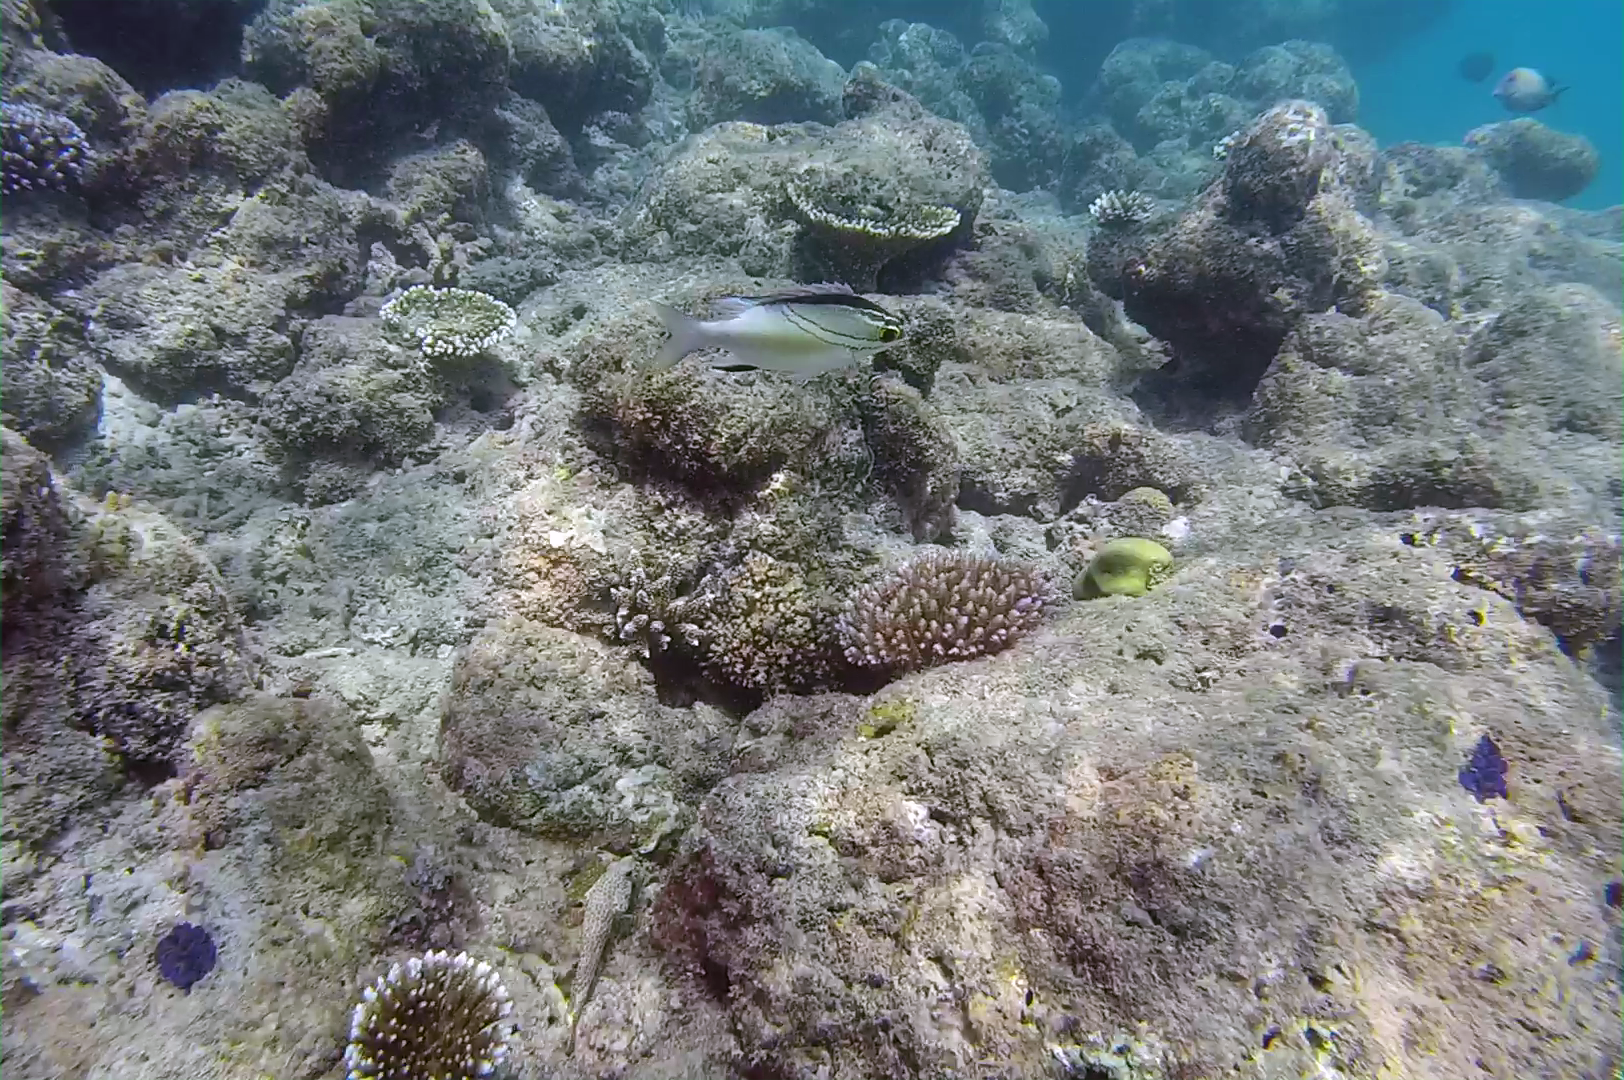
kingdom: Animalia
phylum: Chordata
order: Perciformes
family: Nemipteridae
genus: Scolopsis
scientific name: Scolopsis bilineata
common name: Two-lined monocle bream
